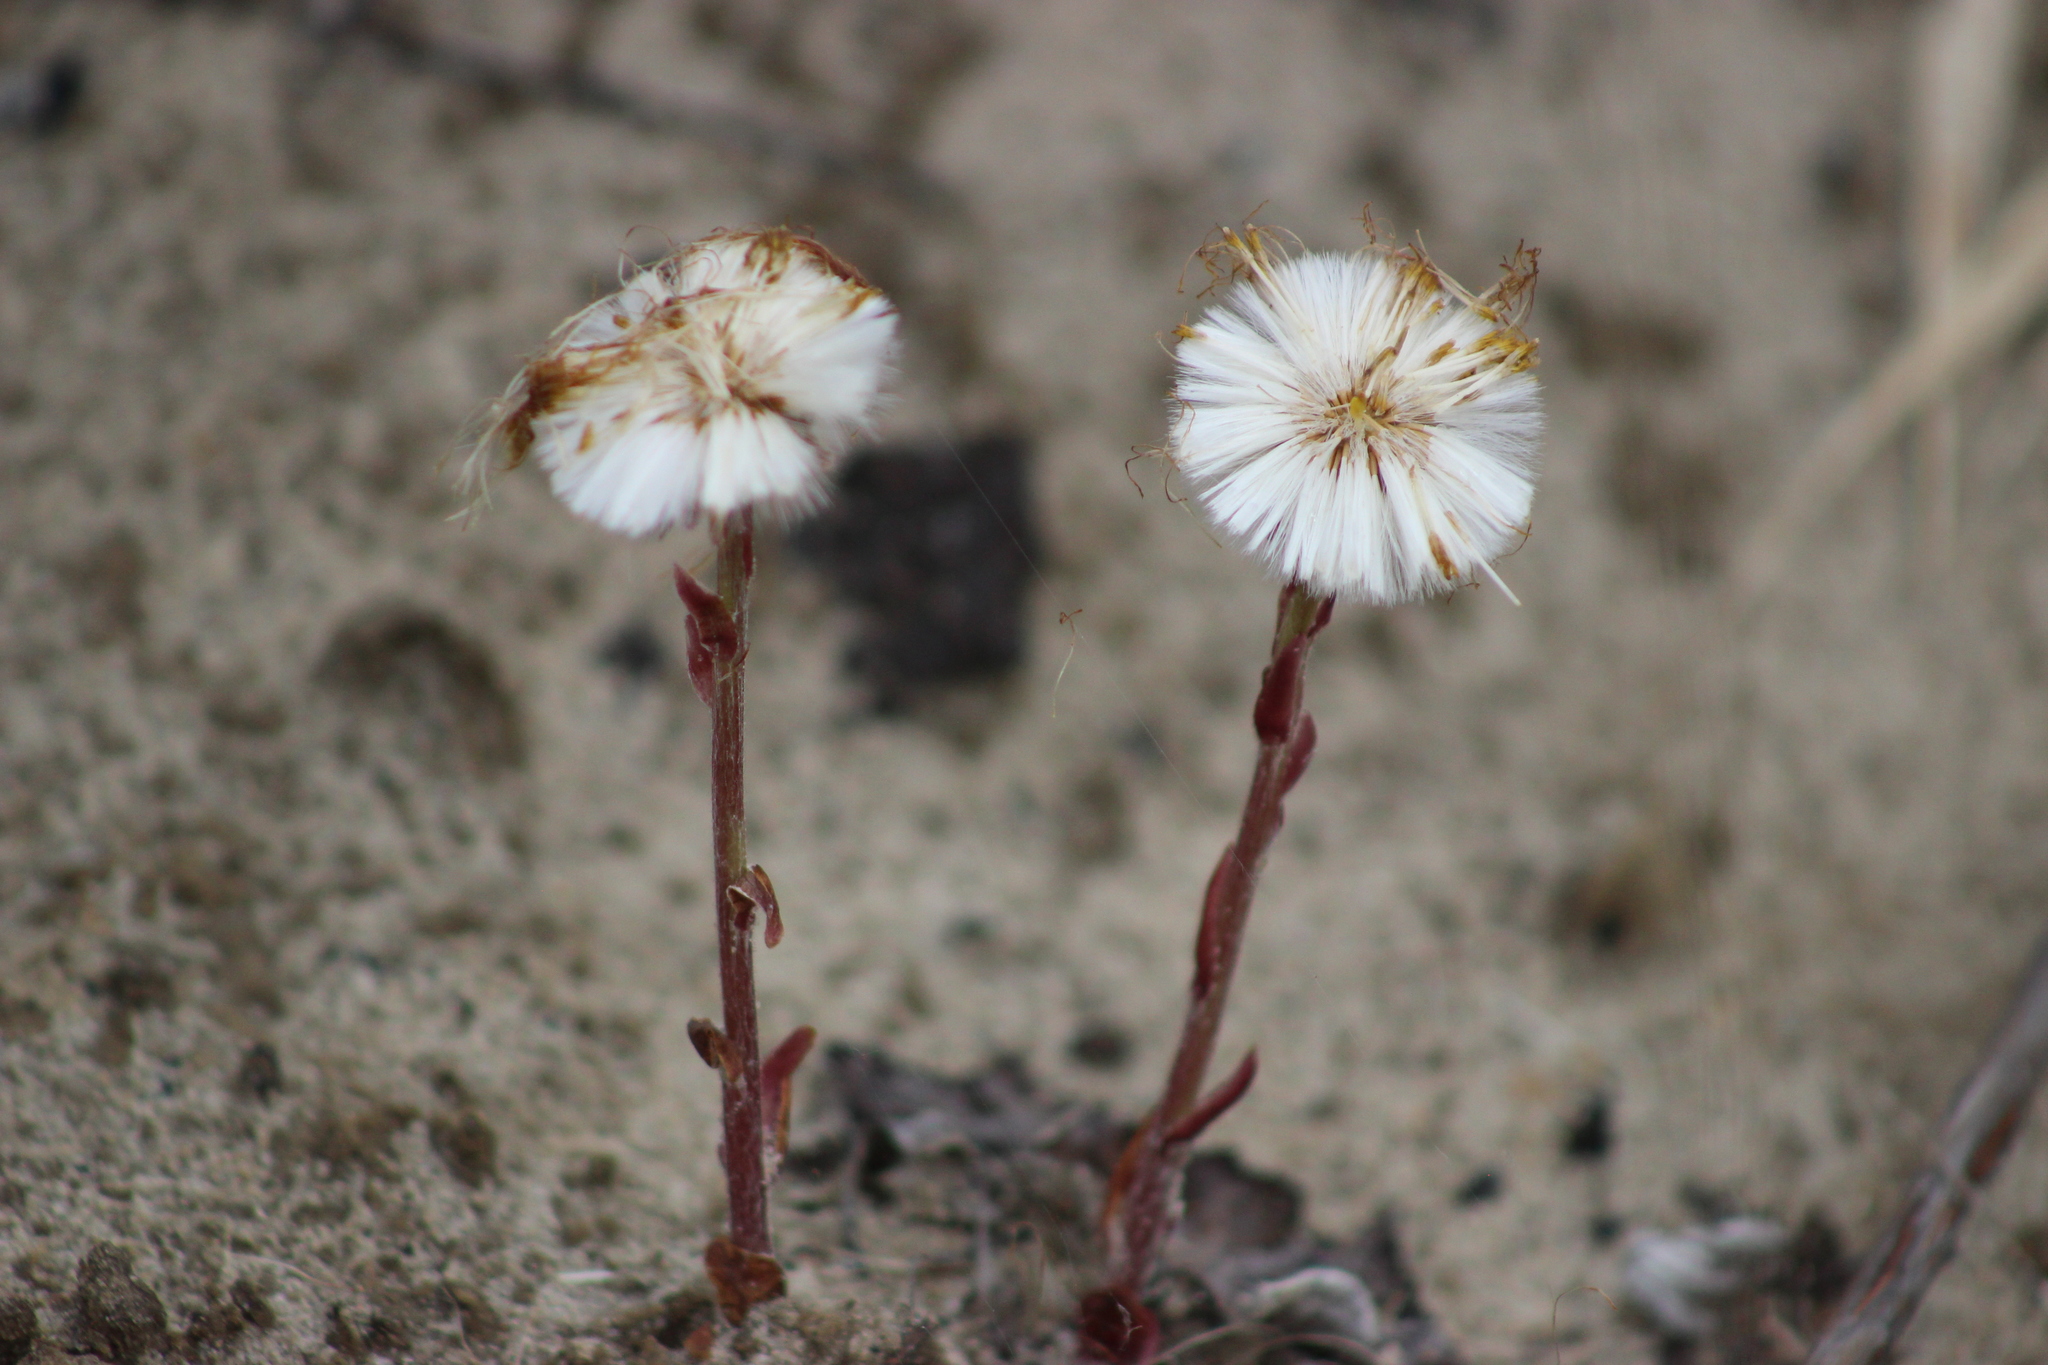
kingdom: Plantae
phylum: Tracheophyta
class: Magnoliopsida
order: Asterales
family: Asteraceae
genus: Tussilago
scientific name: Tussilago farfara
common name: Coltsfoot
